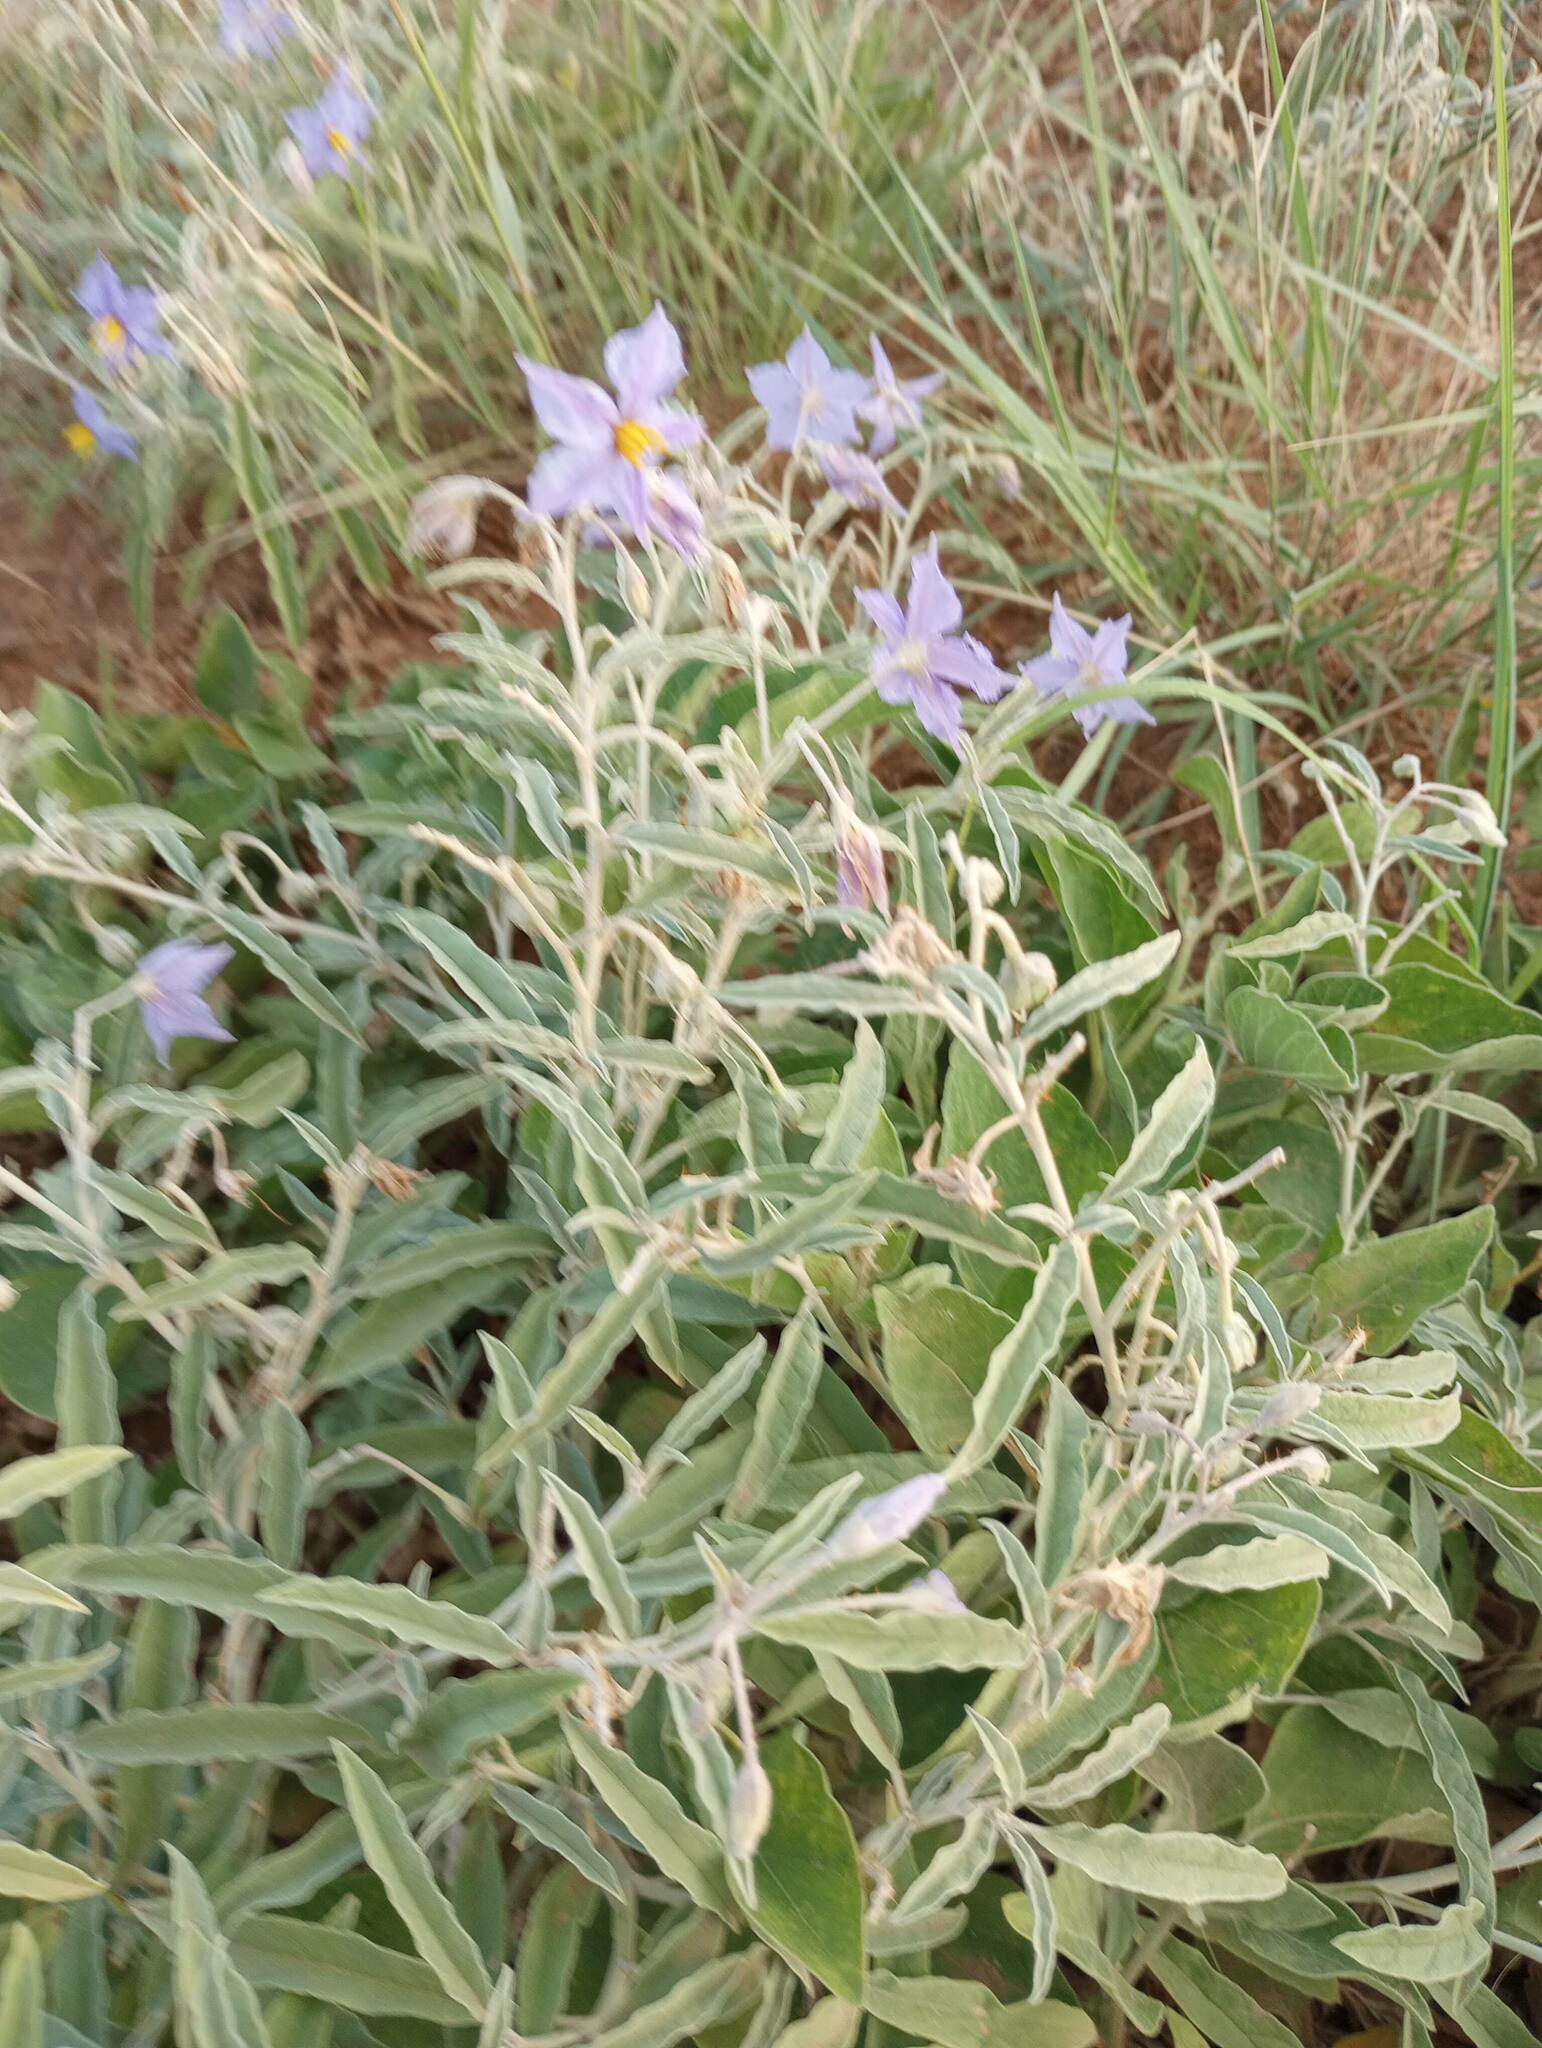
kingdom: Plantae
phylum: Tracheophyta
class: Magnoliopsida
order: Solanales
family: Solanaceae
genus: Solanum
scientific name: Solanum elaeagnifolium
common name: Silverleaf nightshade
